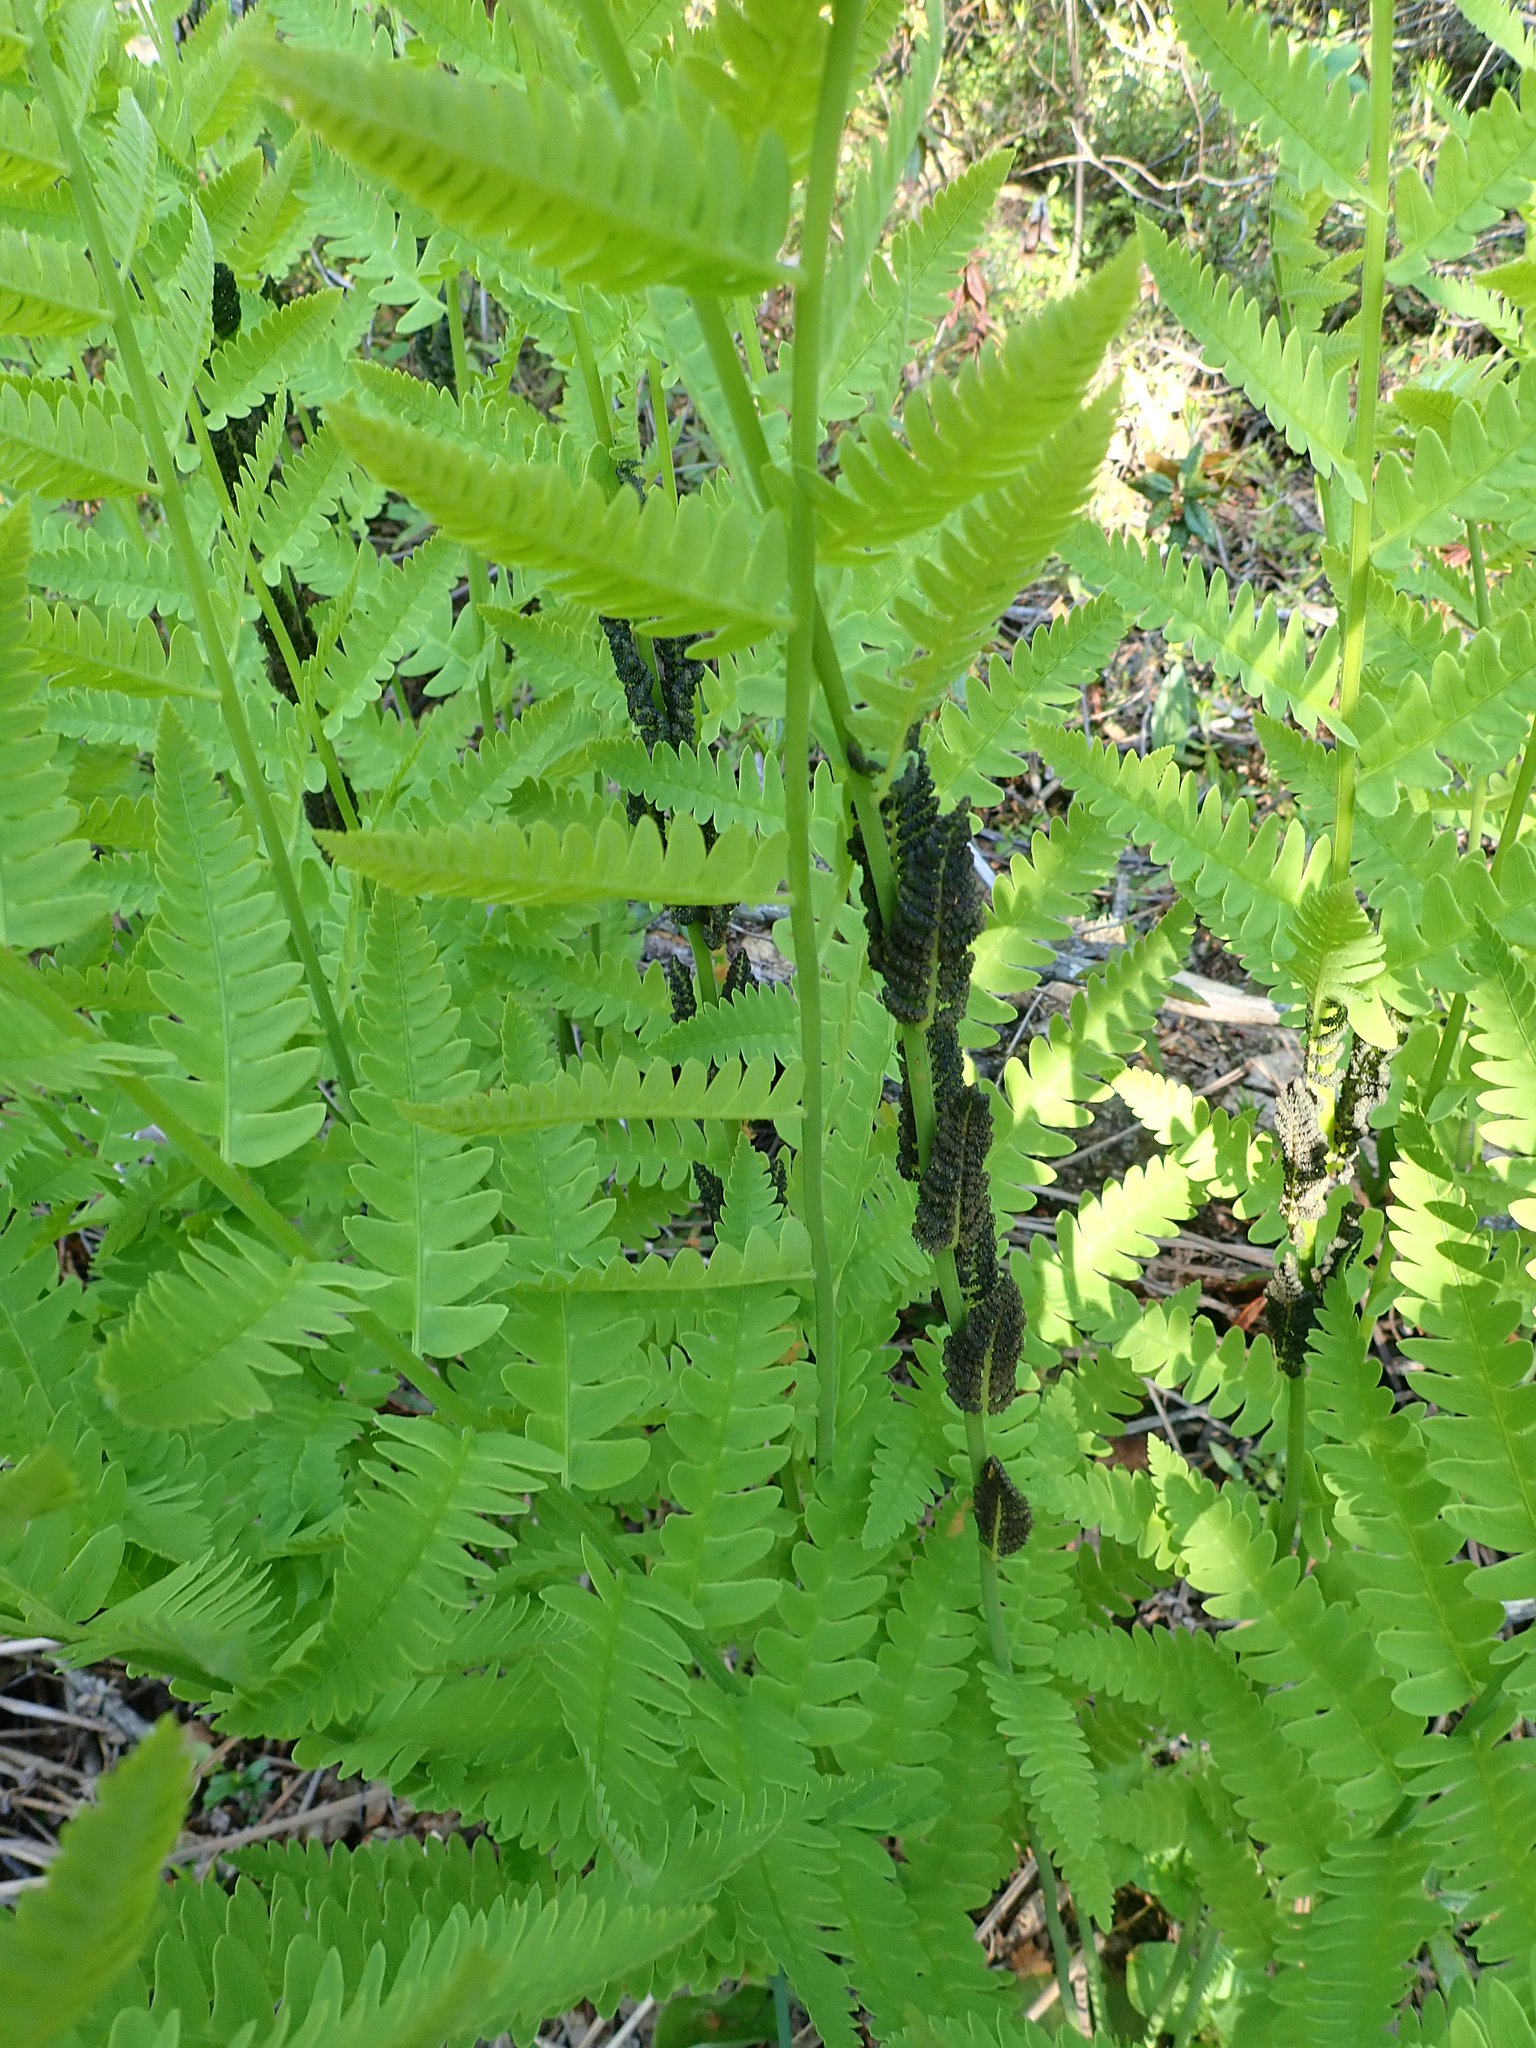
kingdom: Plantae
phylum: Tracheophyta
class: Polypodiopsida
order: Osmundales
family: Osmundaceae
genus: Claytosmunda
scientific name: Claytosmunda claytoniana
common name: Clayton's fern
